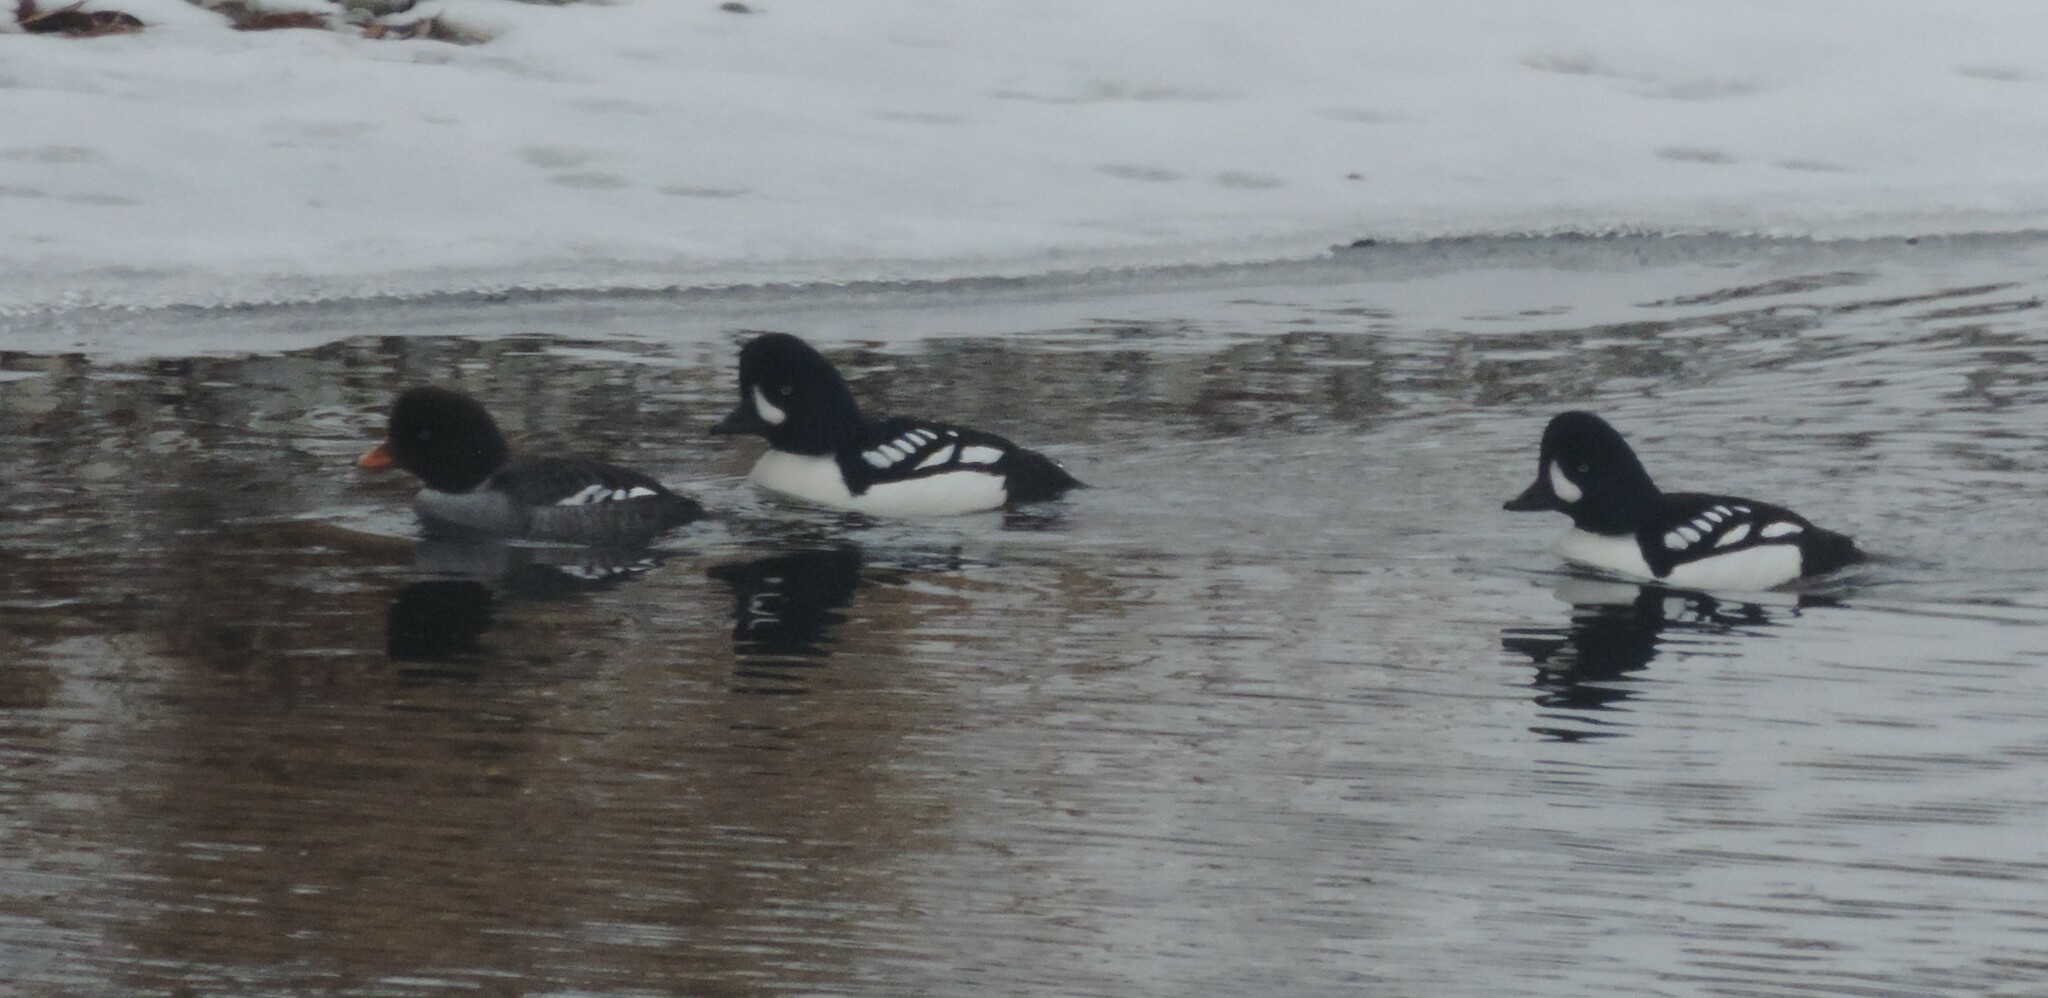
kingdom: Animalia
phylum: Chordata
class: Aves
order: Anseriformes
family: Anatidae
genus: Bucephala
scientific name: Bucephala islandica
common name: Barrow's goldeneye
